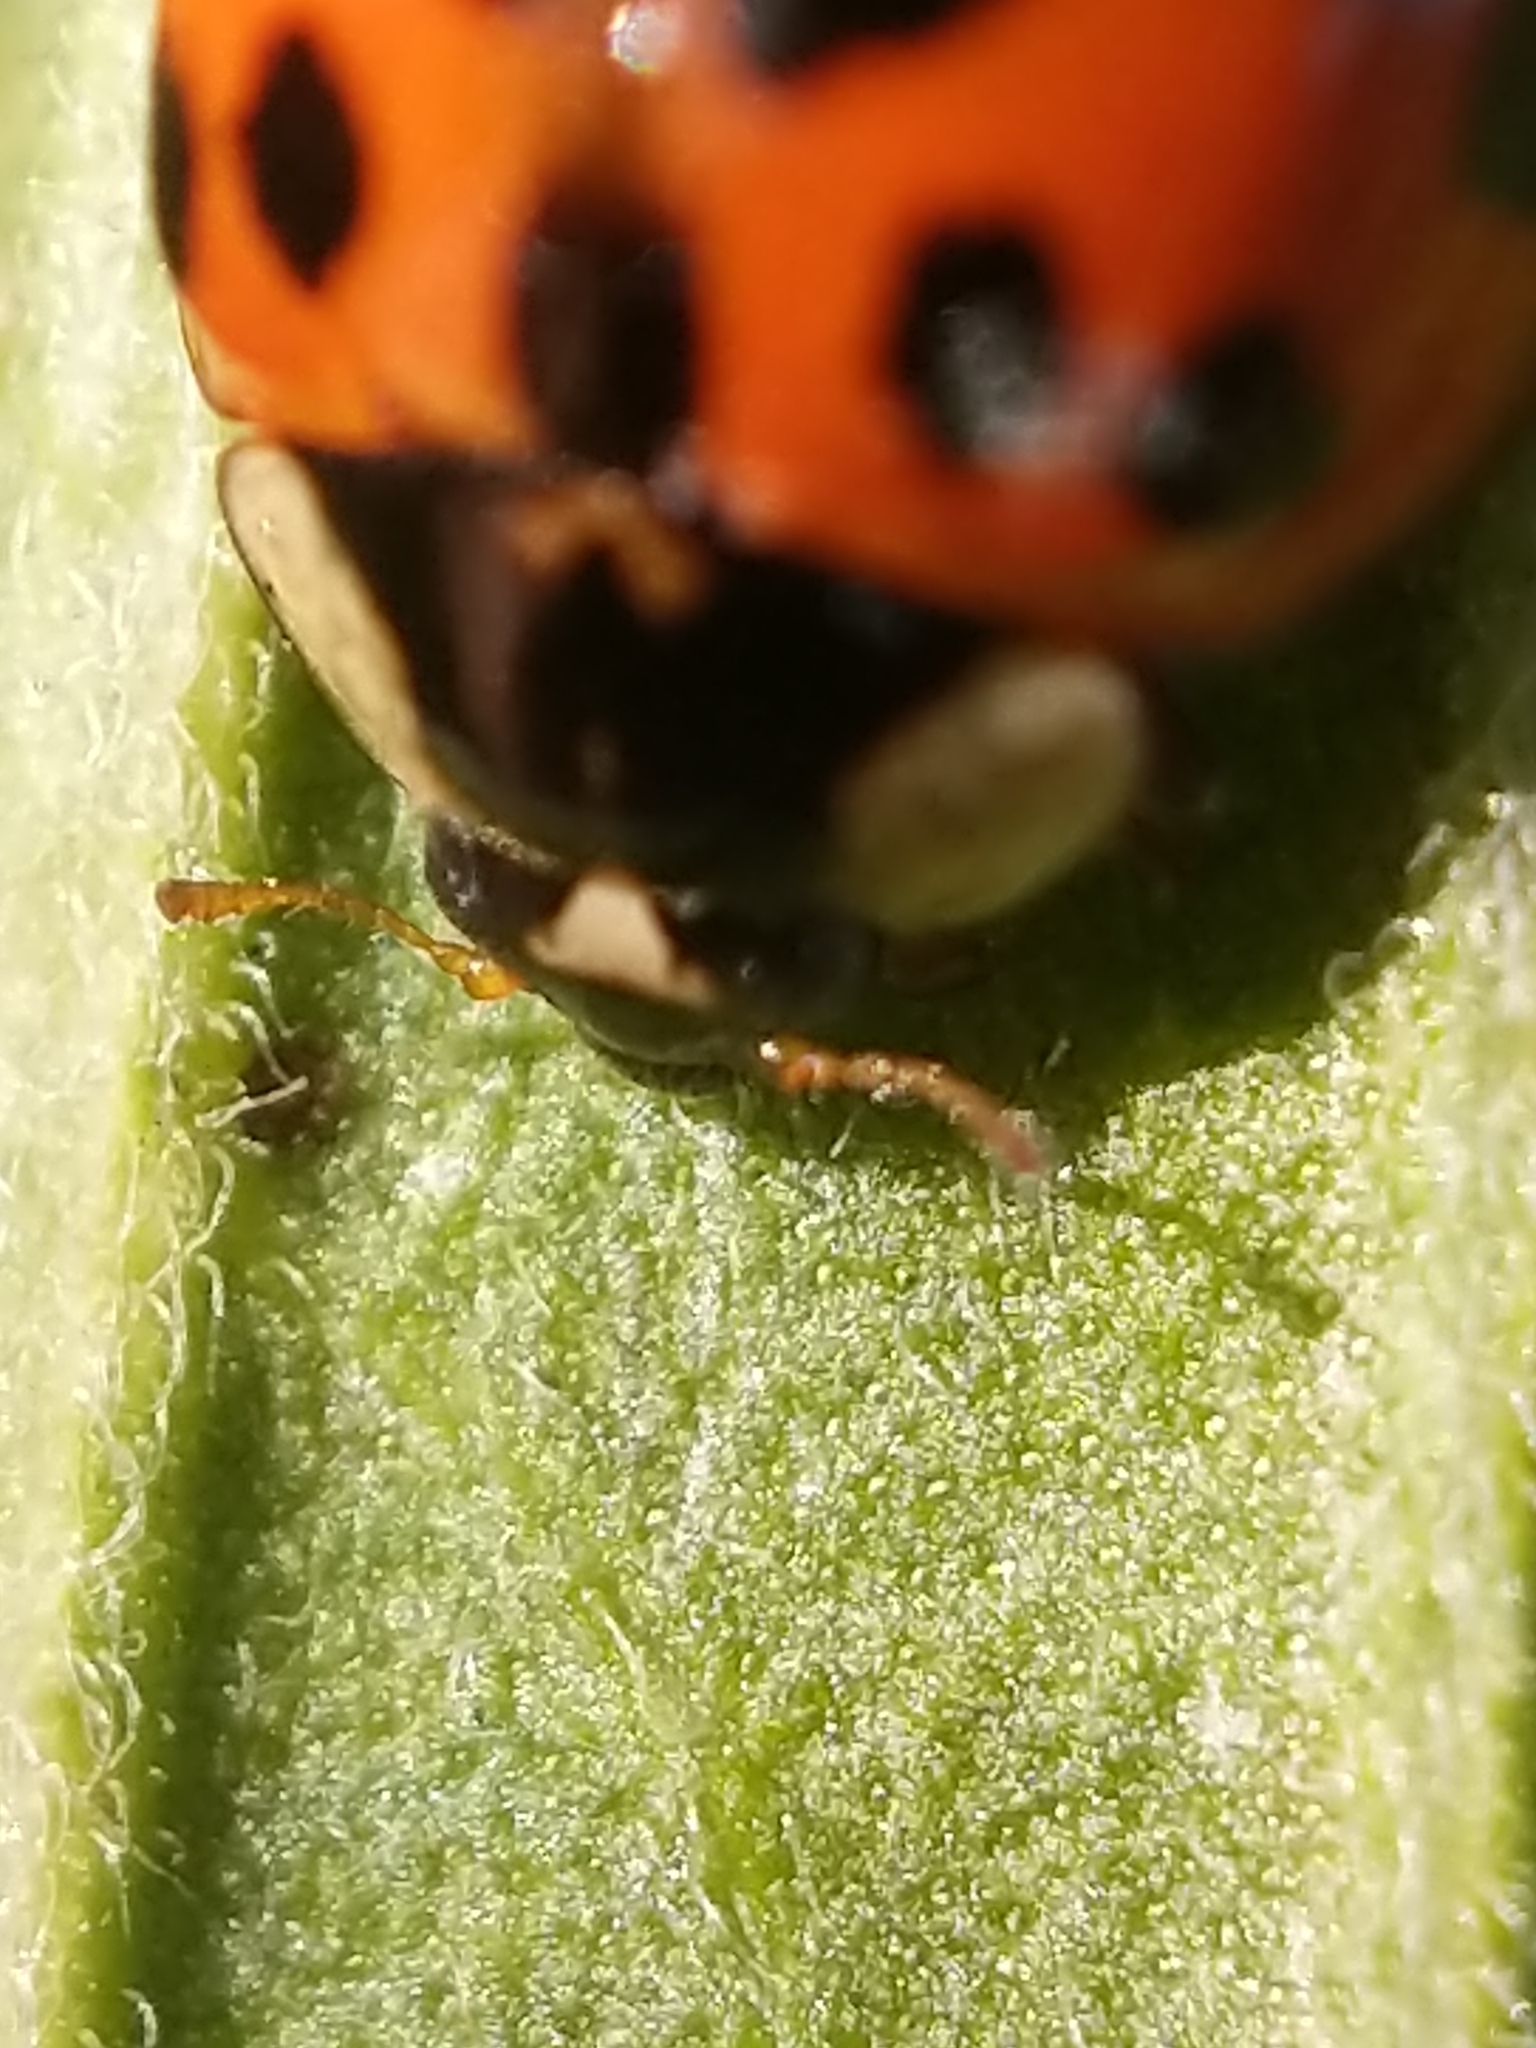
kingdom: Animalia
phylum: Arthropoda
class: Insecta
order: Coleoptera
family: Coccinellidae
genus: Harmonia
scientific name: Harmonia axyridis
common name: Harlequin ladybird
